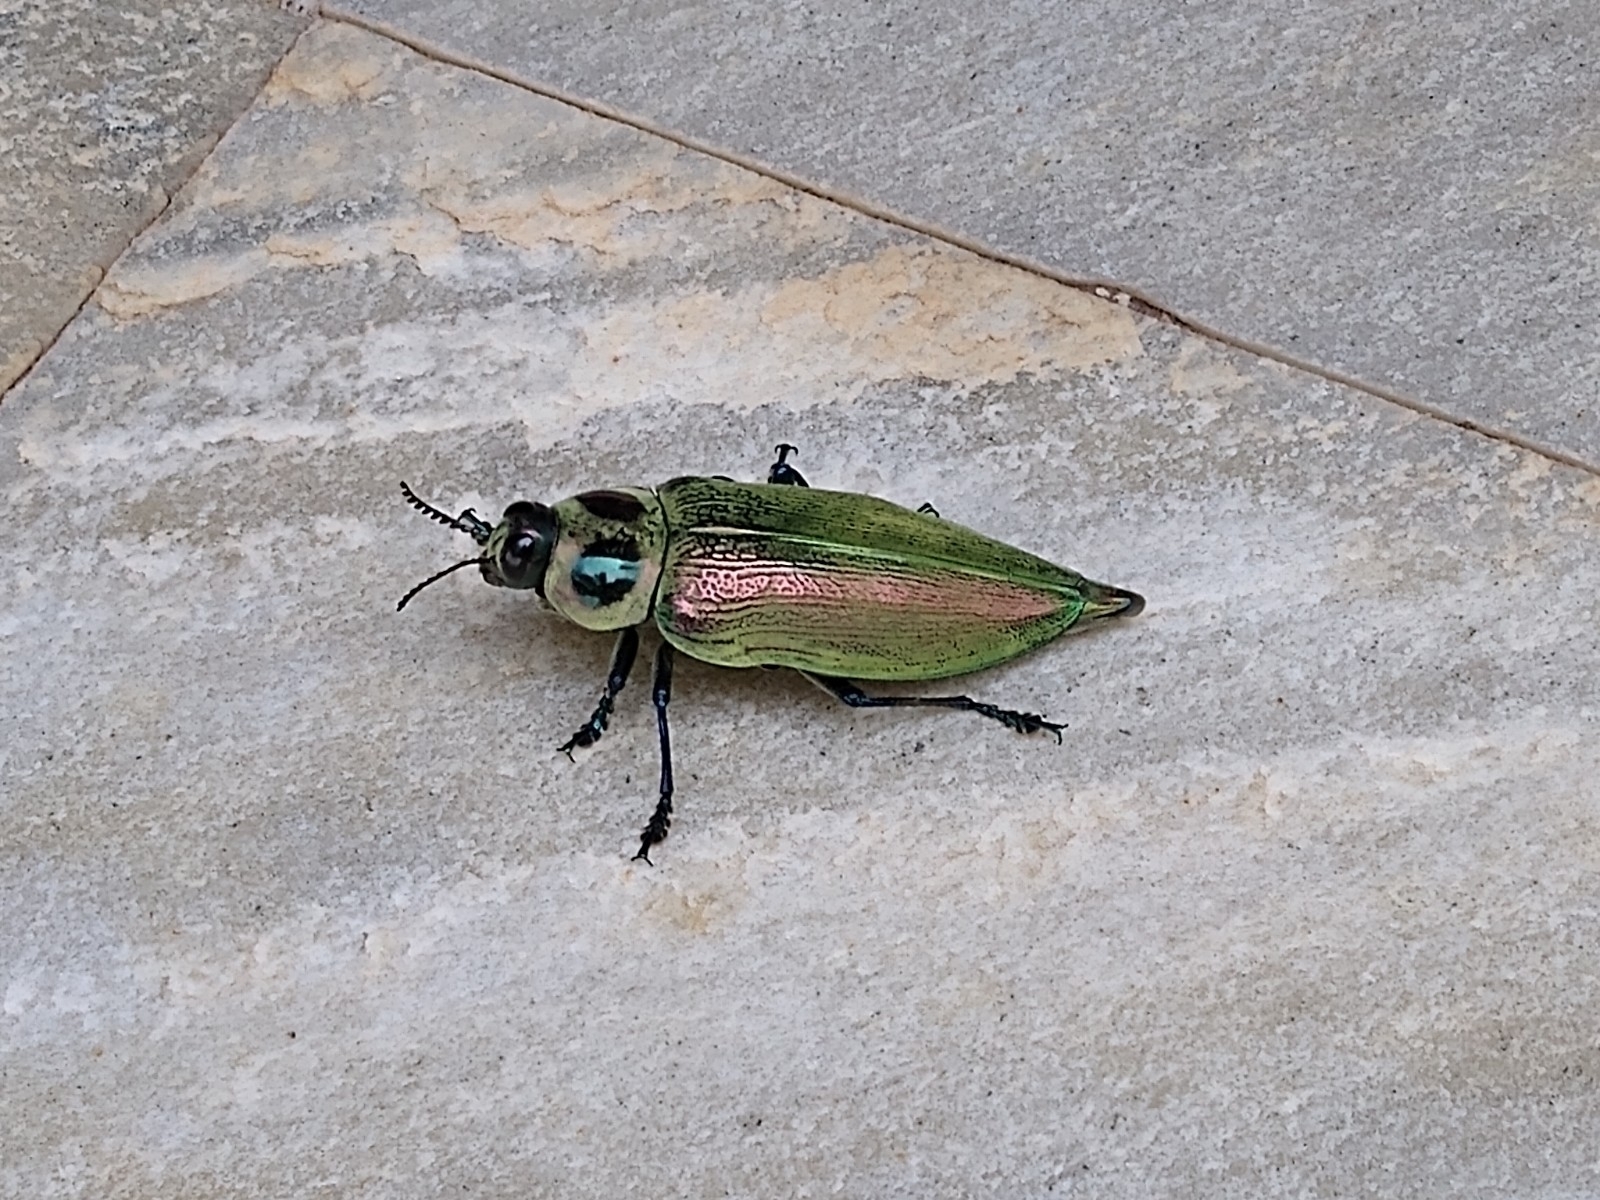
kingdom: Animalia
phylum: Arthropoda
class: Insecta
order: Coleoptera
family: Buprestidae
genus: Euchroma
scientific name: Euchroma giganteum
